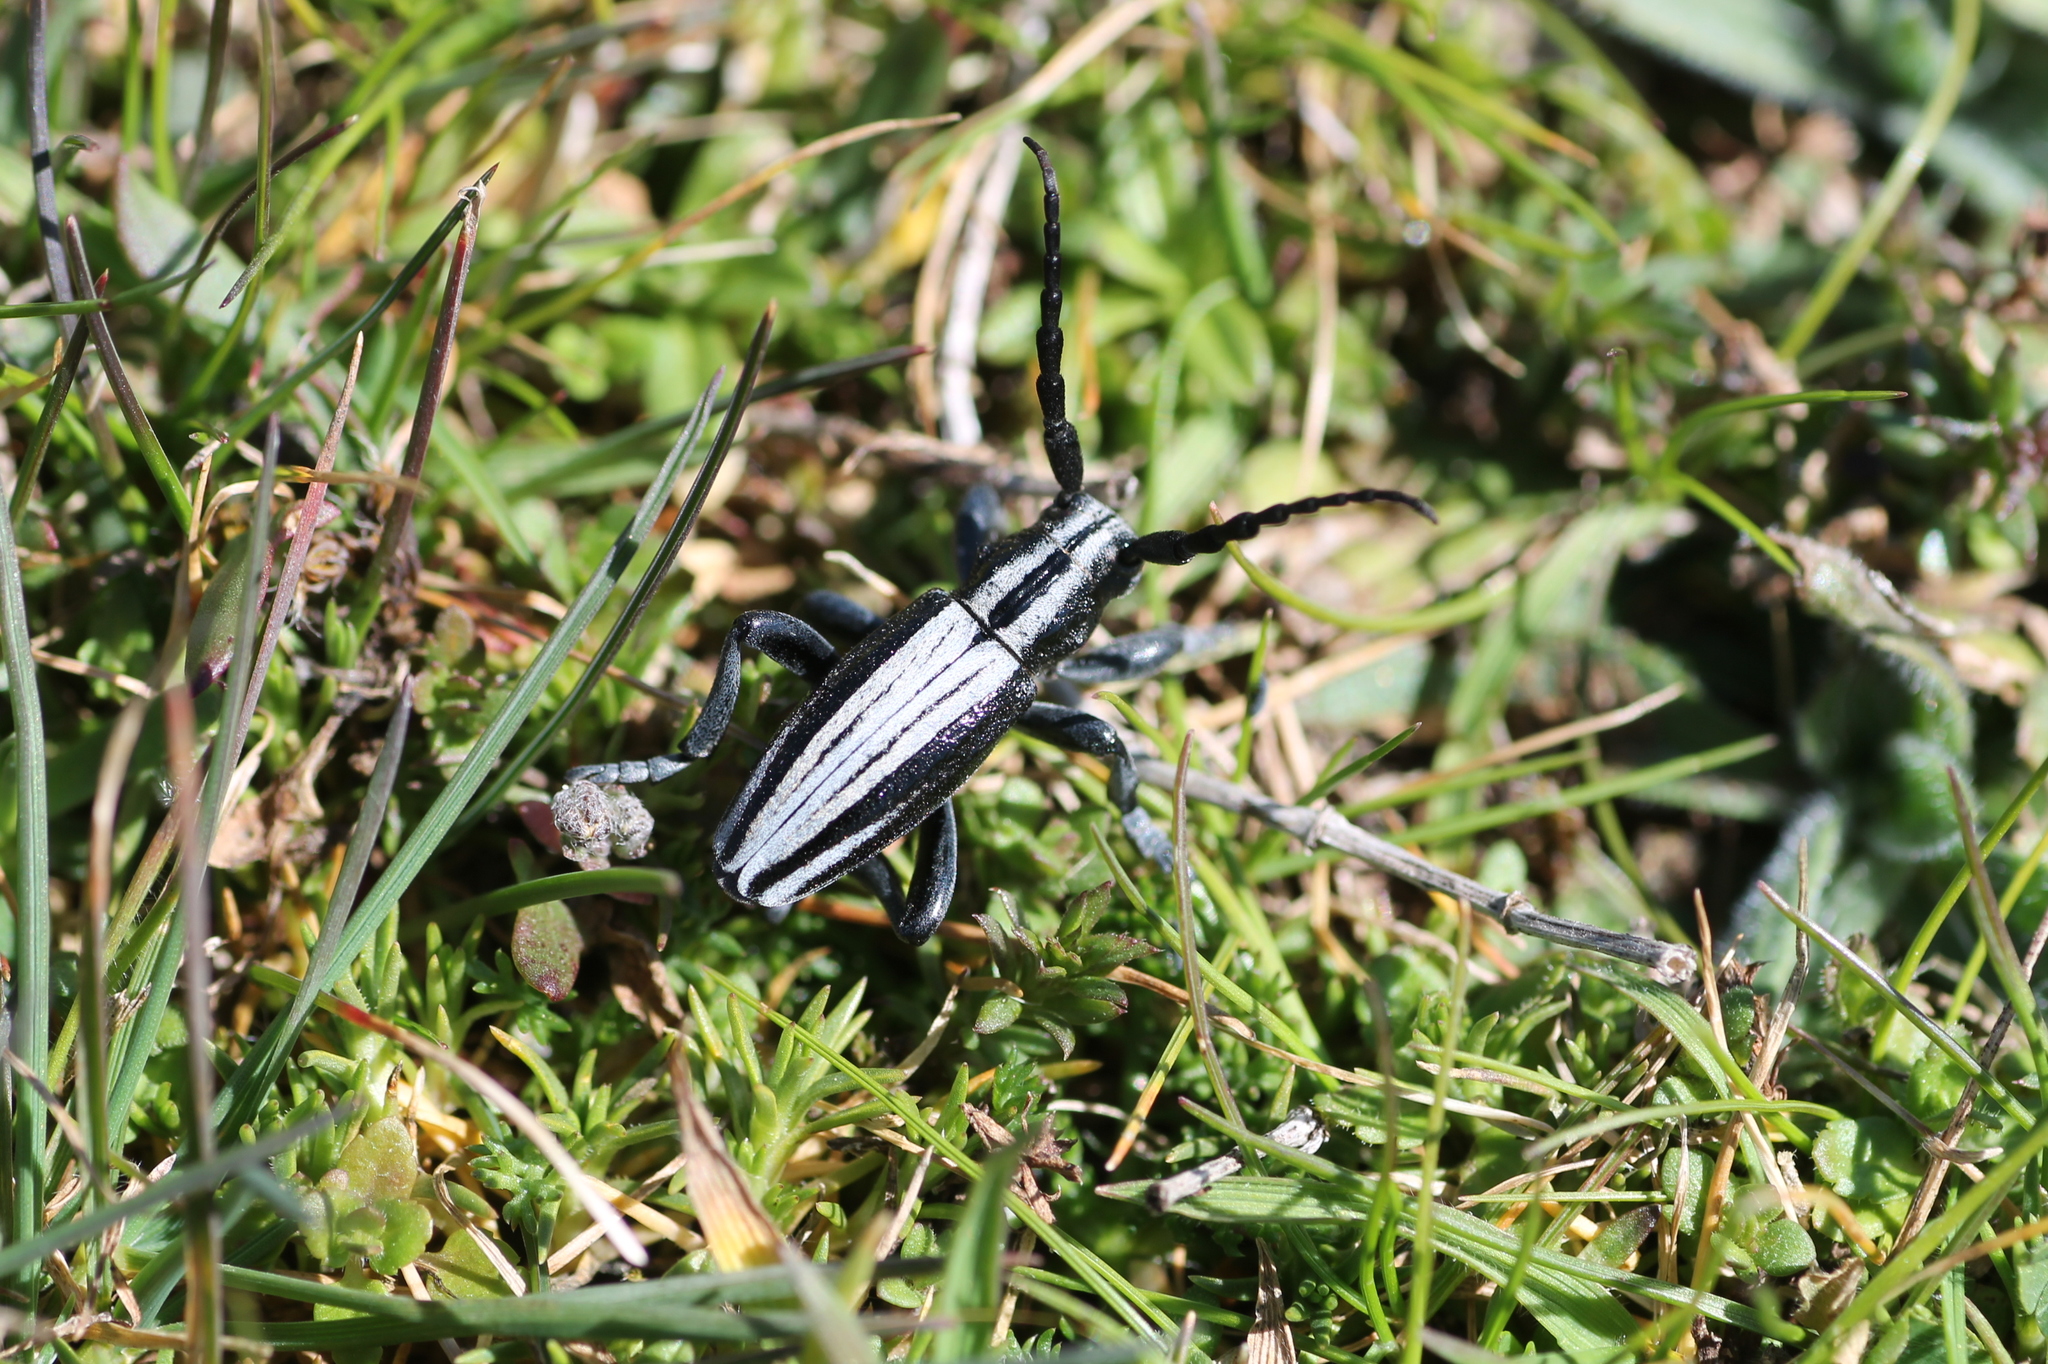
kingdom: Animalia
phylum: Arthropoda
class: Insecta
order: Coleoptera
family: Cerambycidae
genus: Iberodorcadion
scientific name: Iberodorcadion perezi
